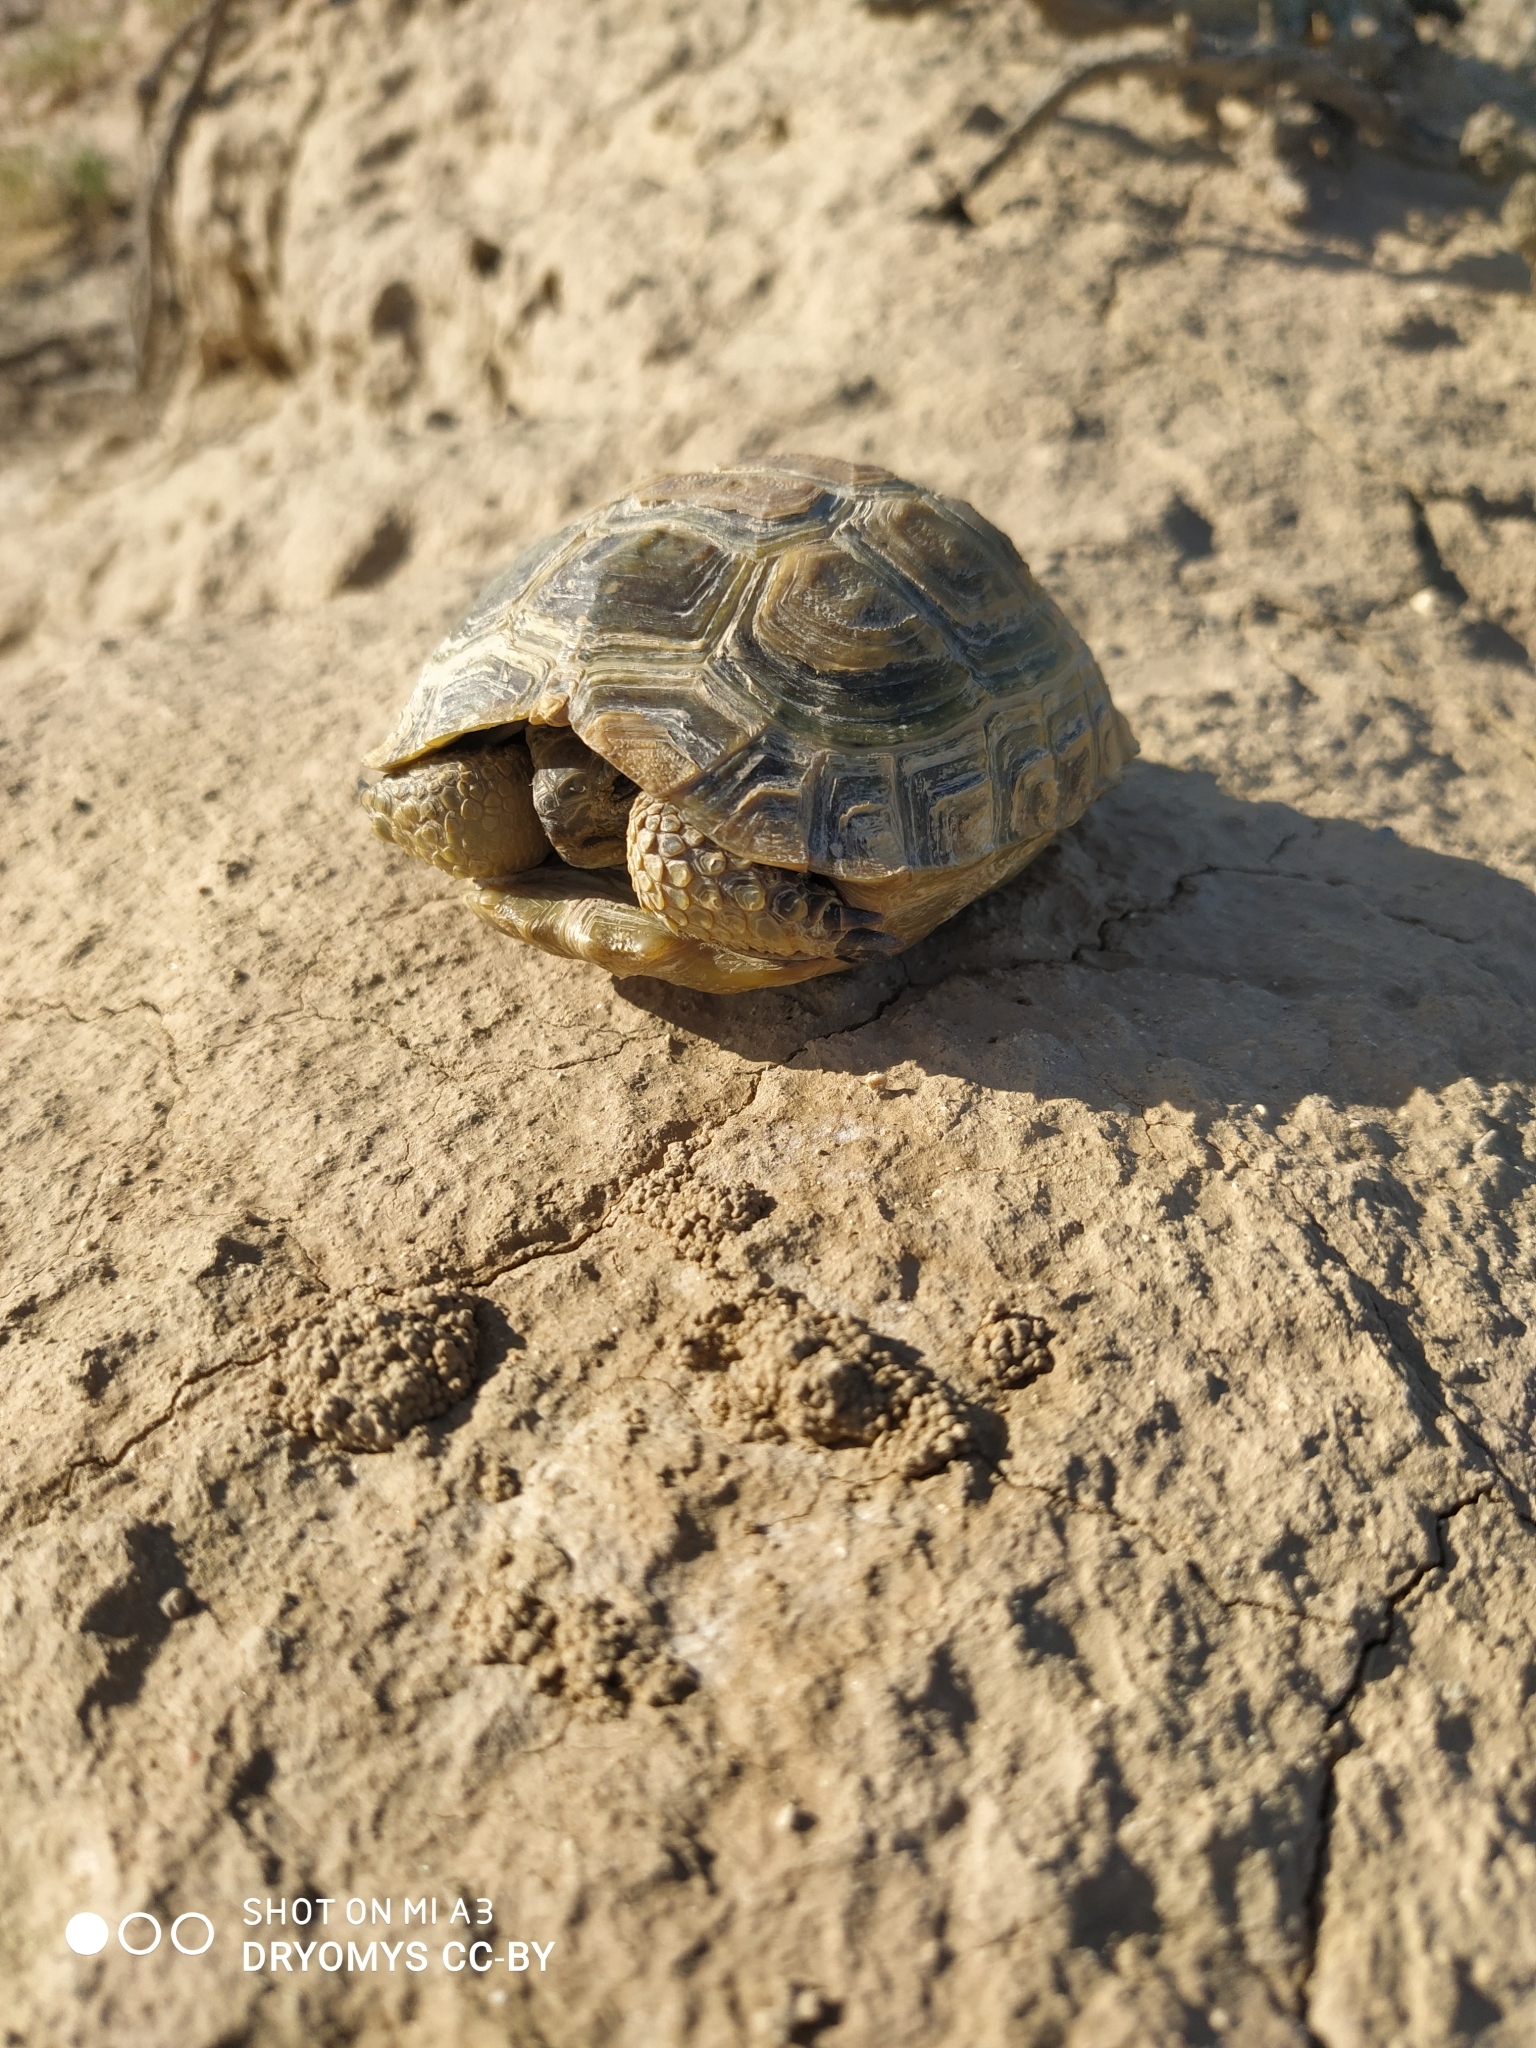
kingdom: Animalia
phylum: Chordata
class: Testudines
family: Testudinidae
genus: Testudo
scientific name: Testudo horsfieldii
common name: Central asia tortoise
